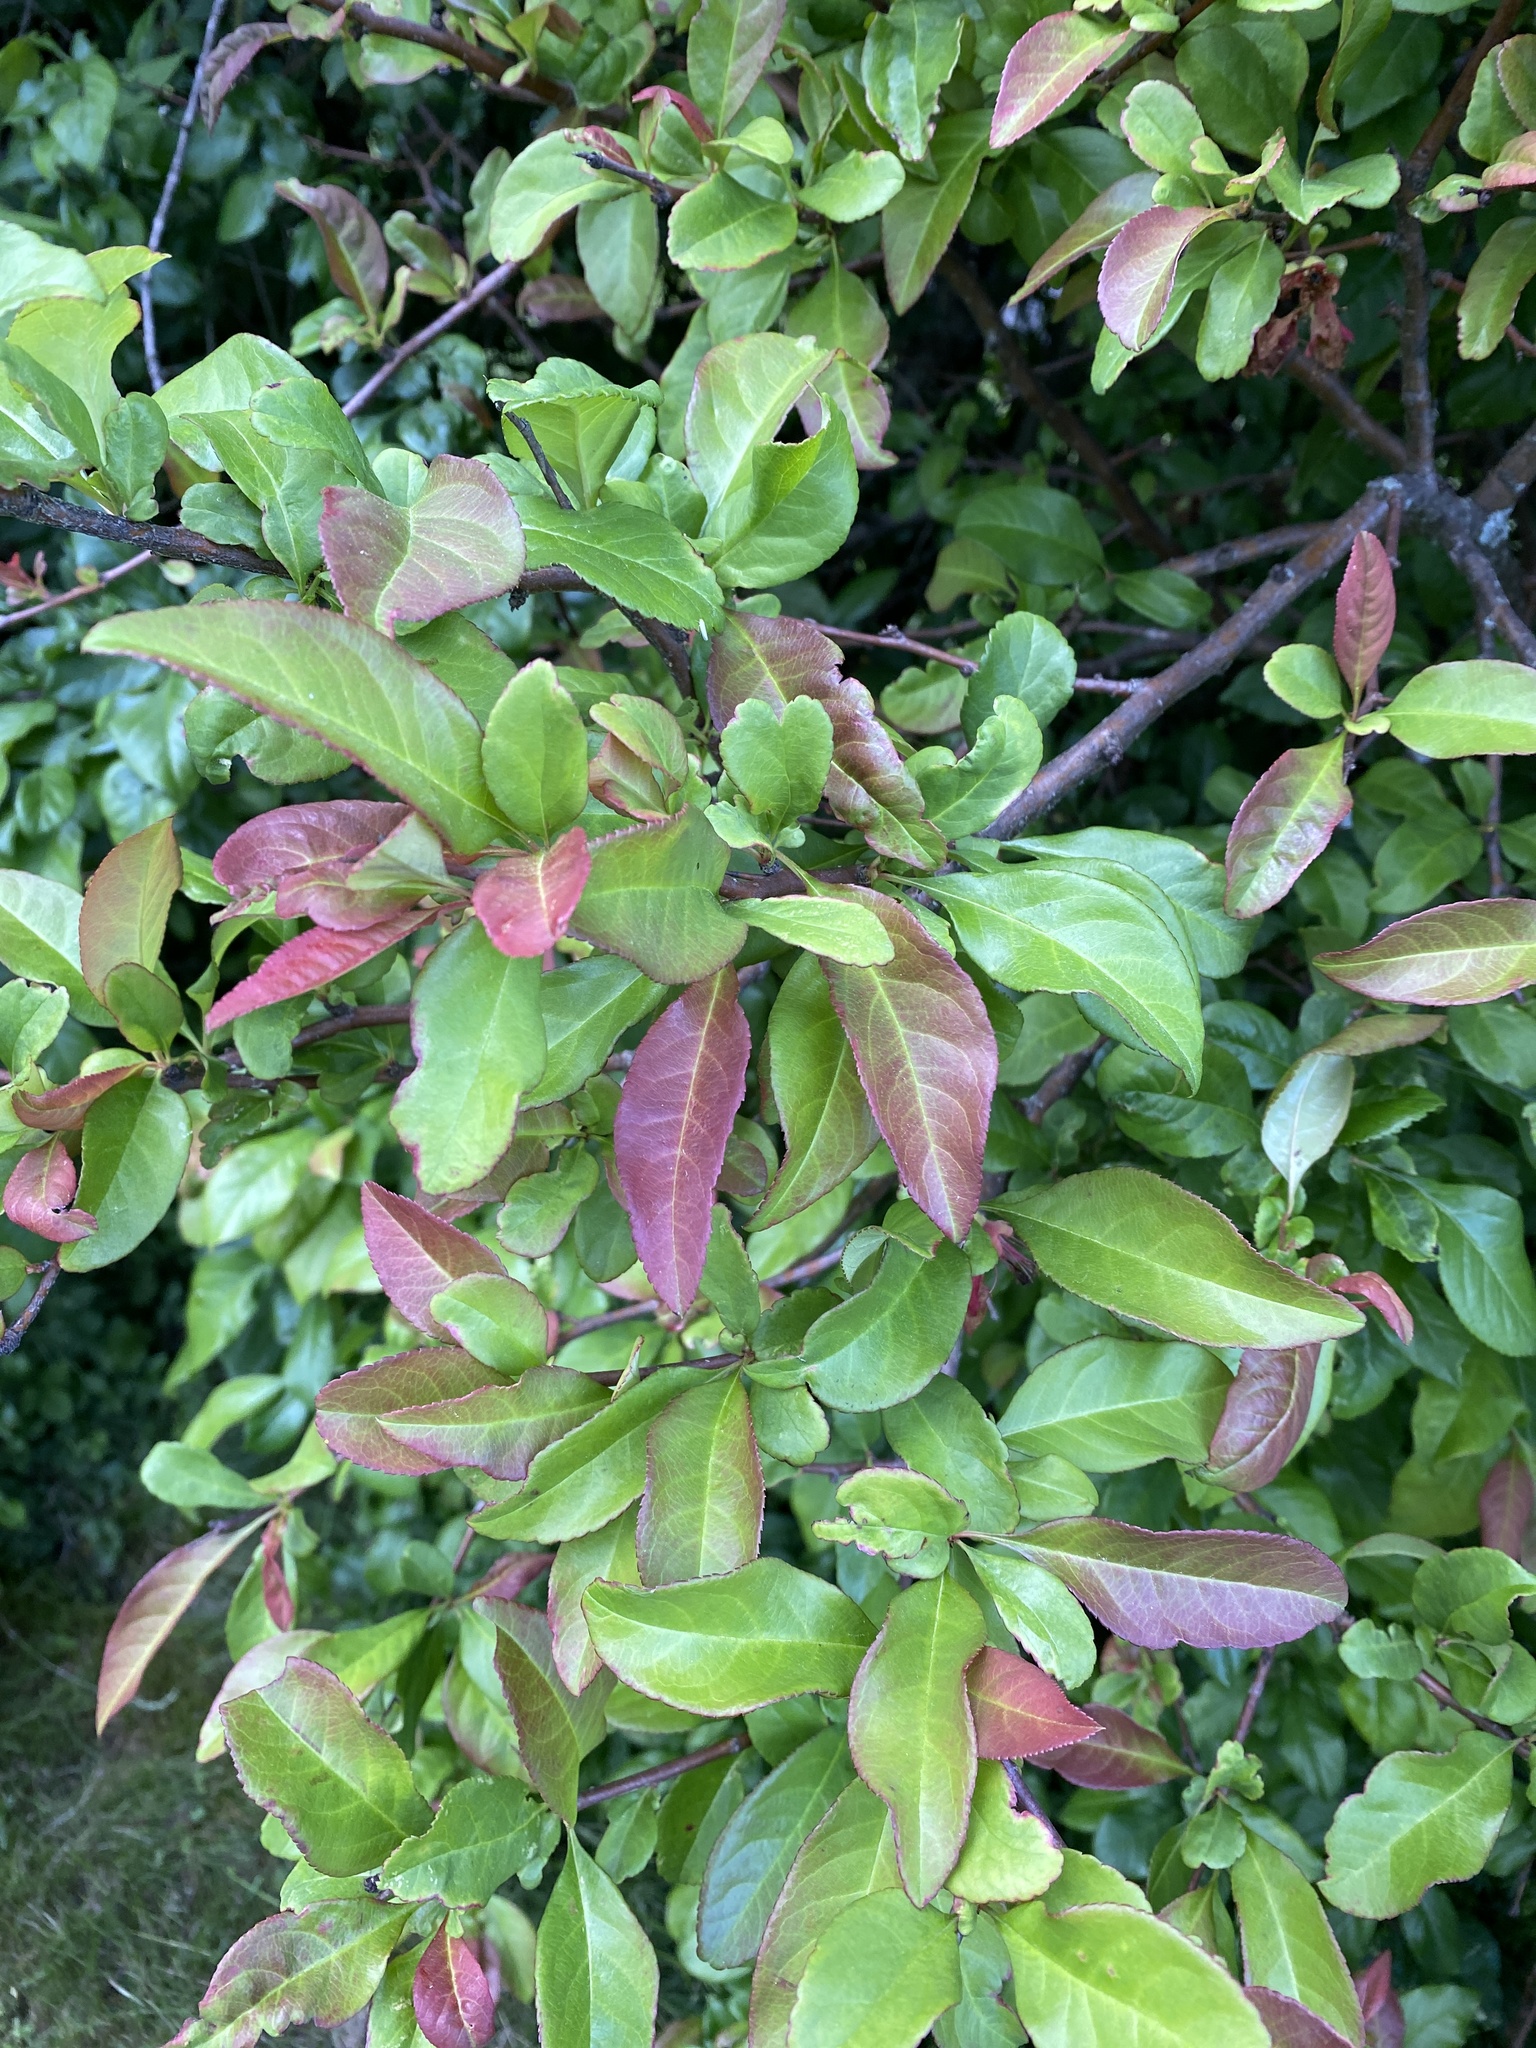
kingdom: Plantae
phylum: Tracheophyta
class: Magnoliopsida
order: Rosales
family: Rosaceae
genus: Chaenomeles
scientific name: Chaenomeles speciosa
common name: Japanese quince
